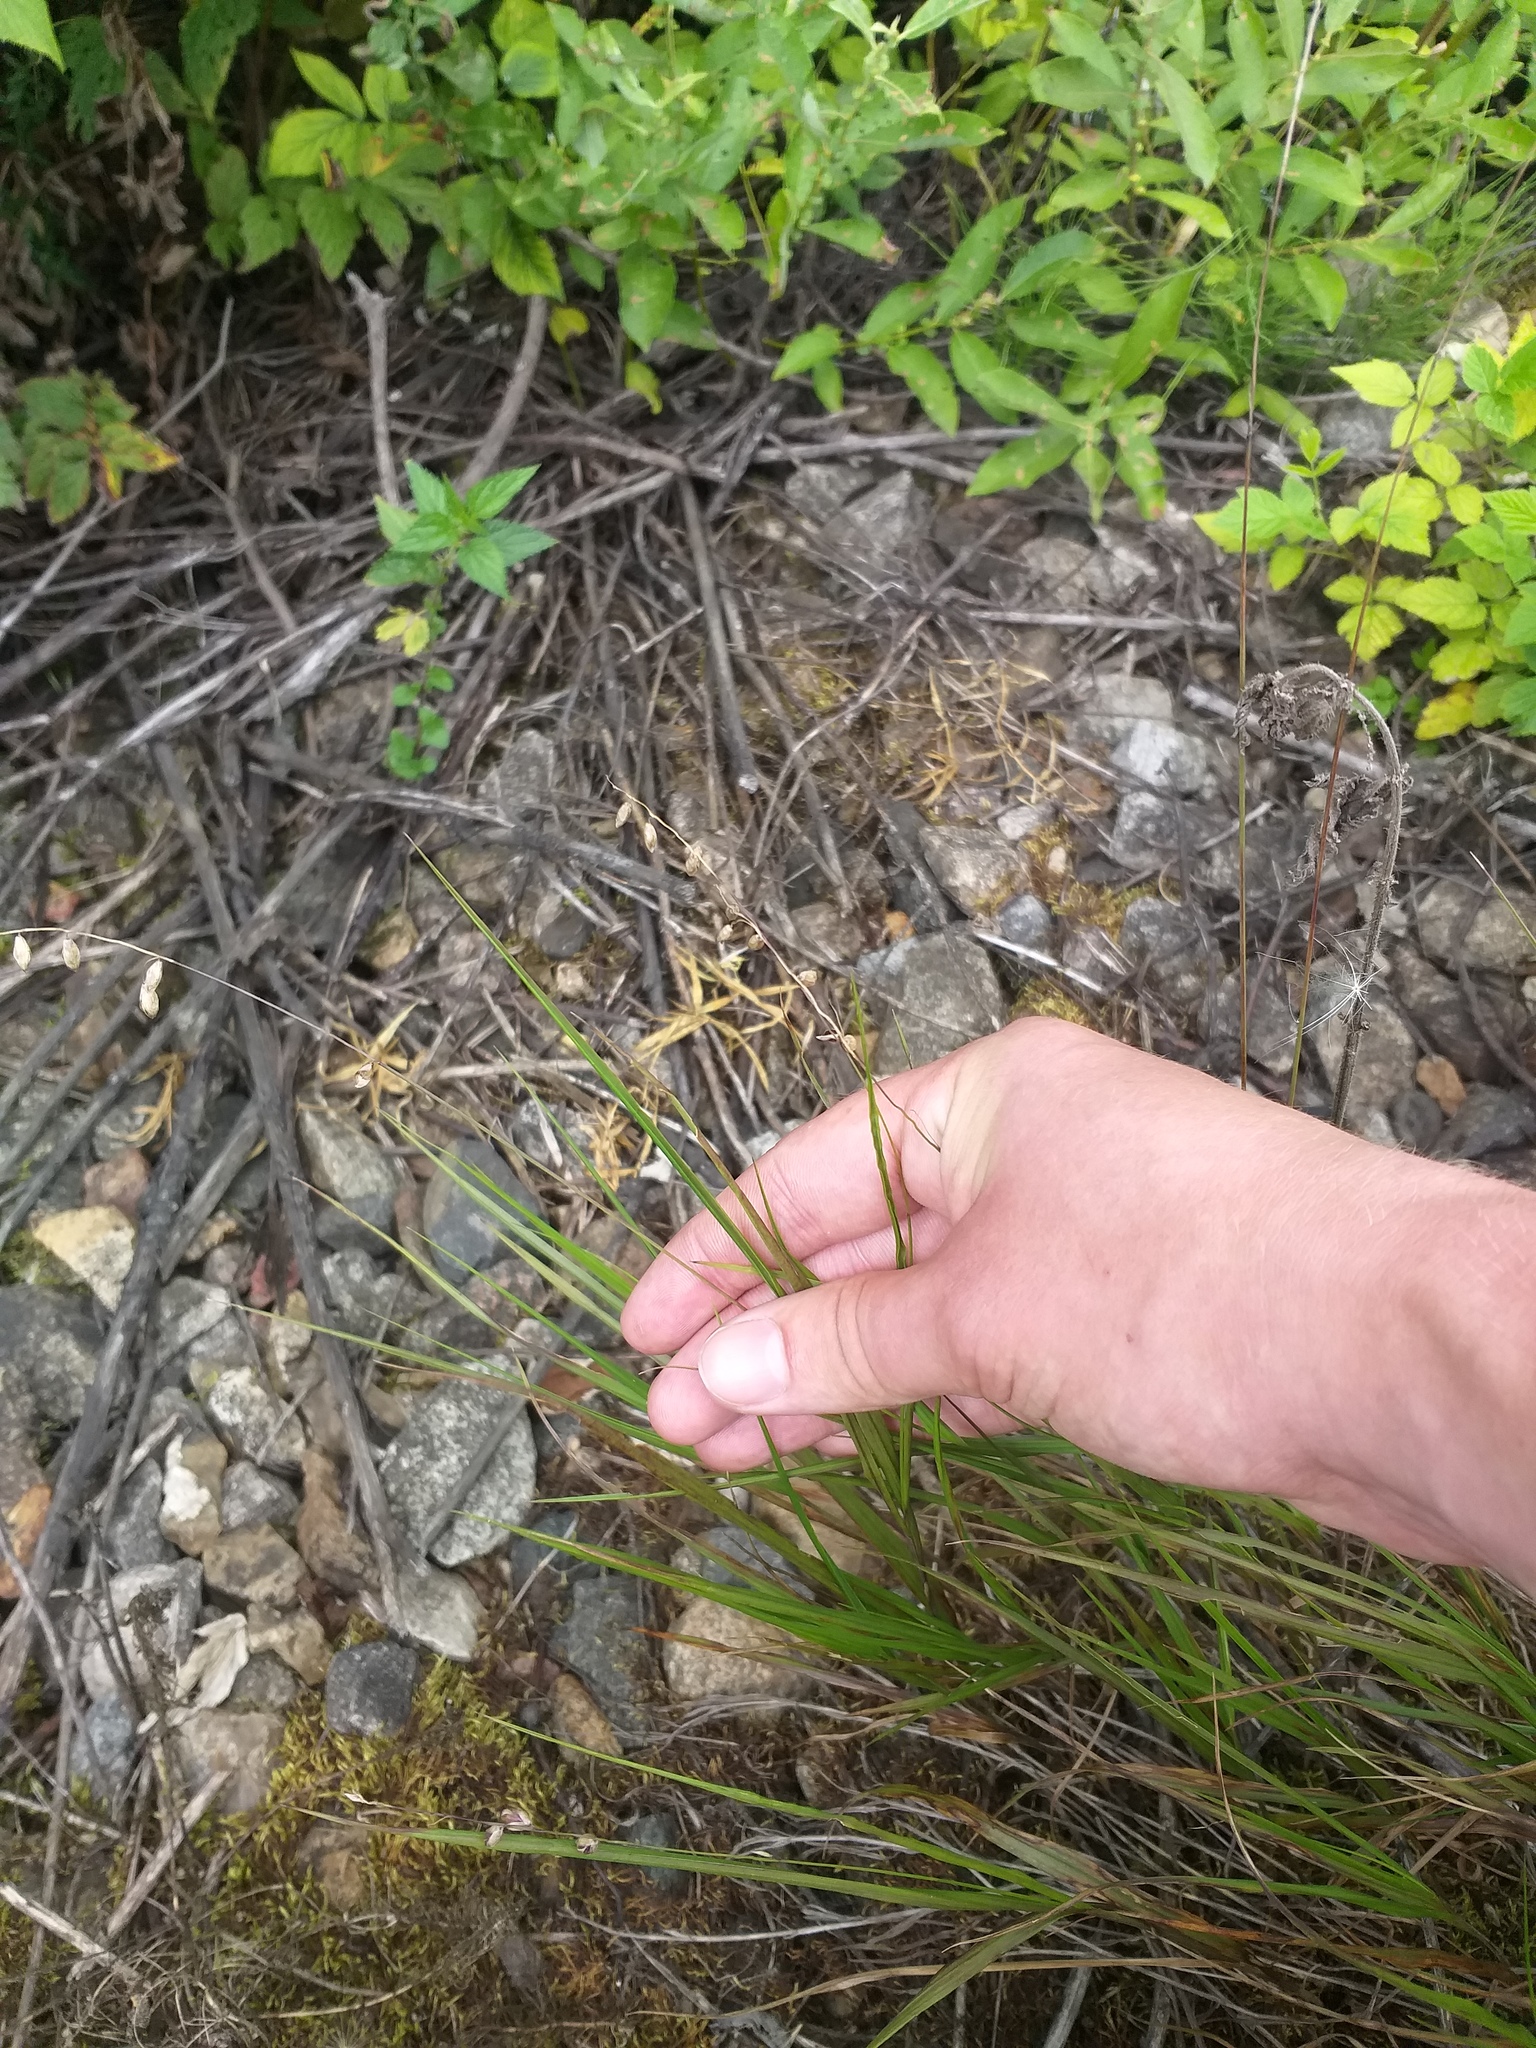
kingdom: Plantae
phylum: Tracheophyta
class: Liliopsida
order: Poales
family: Poaceae
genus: Melica
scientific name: Melica nutans
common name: Mountain melick
